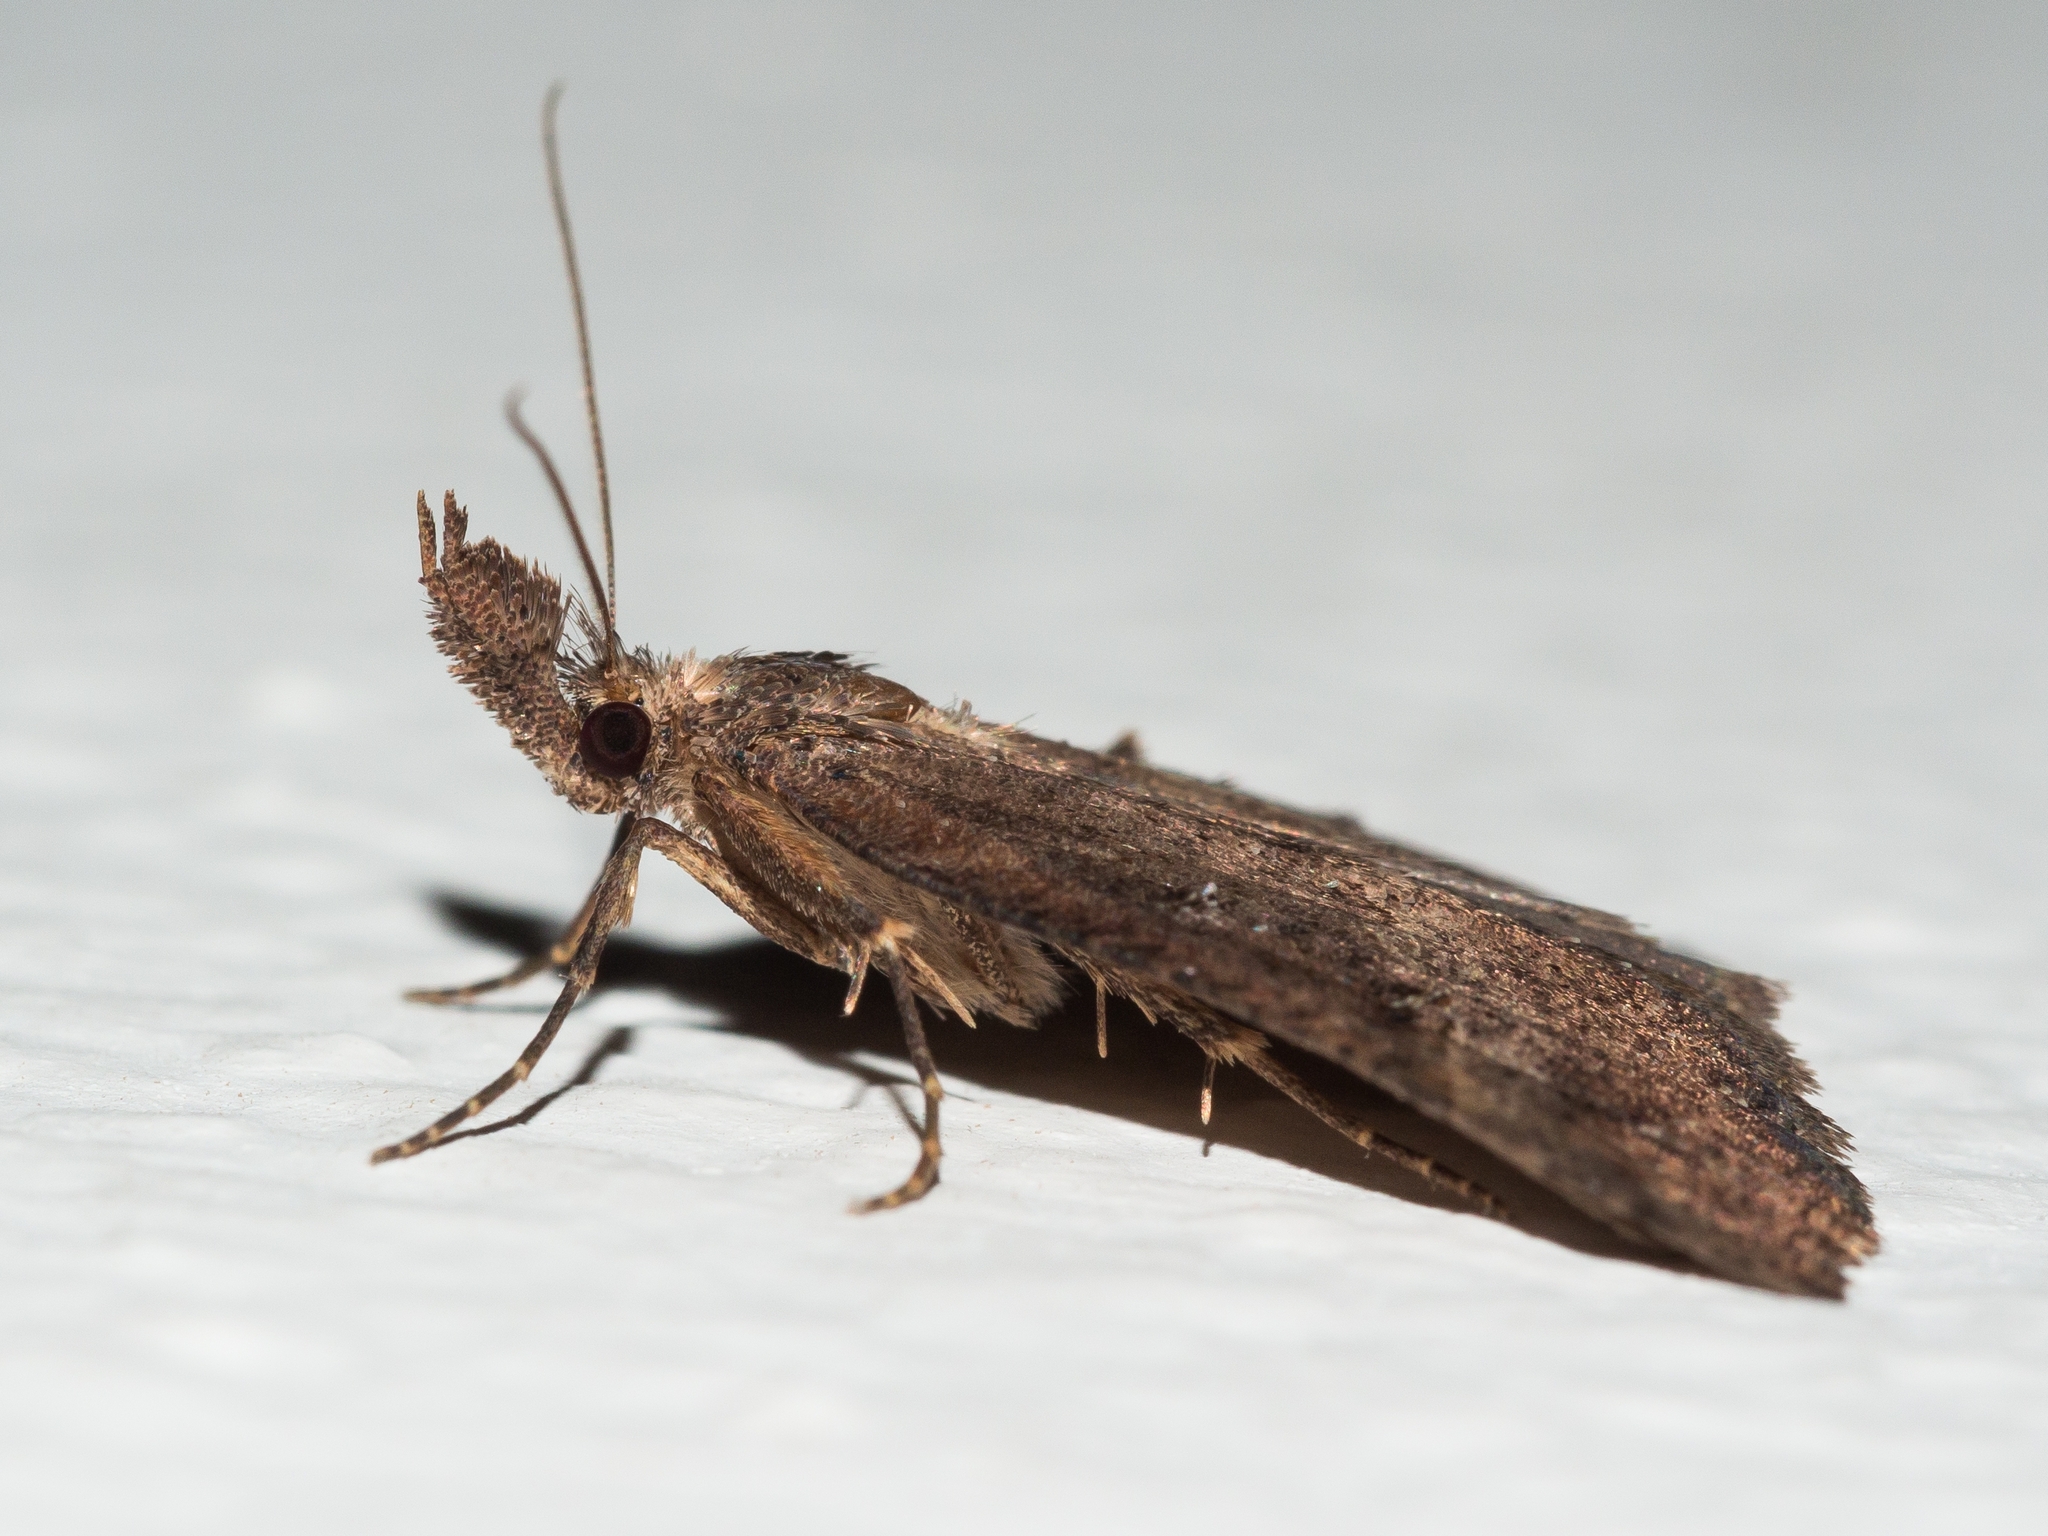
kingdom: Animalia
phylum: Arthropoda
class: Insecta
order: Lepidoptera
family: Erebidae
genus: Hypena
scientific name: Hypena rostralis
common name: Buttoned snout
